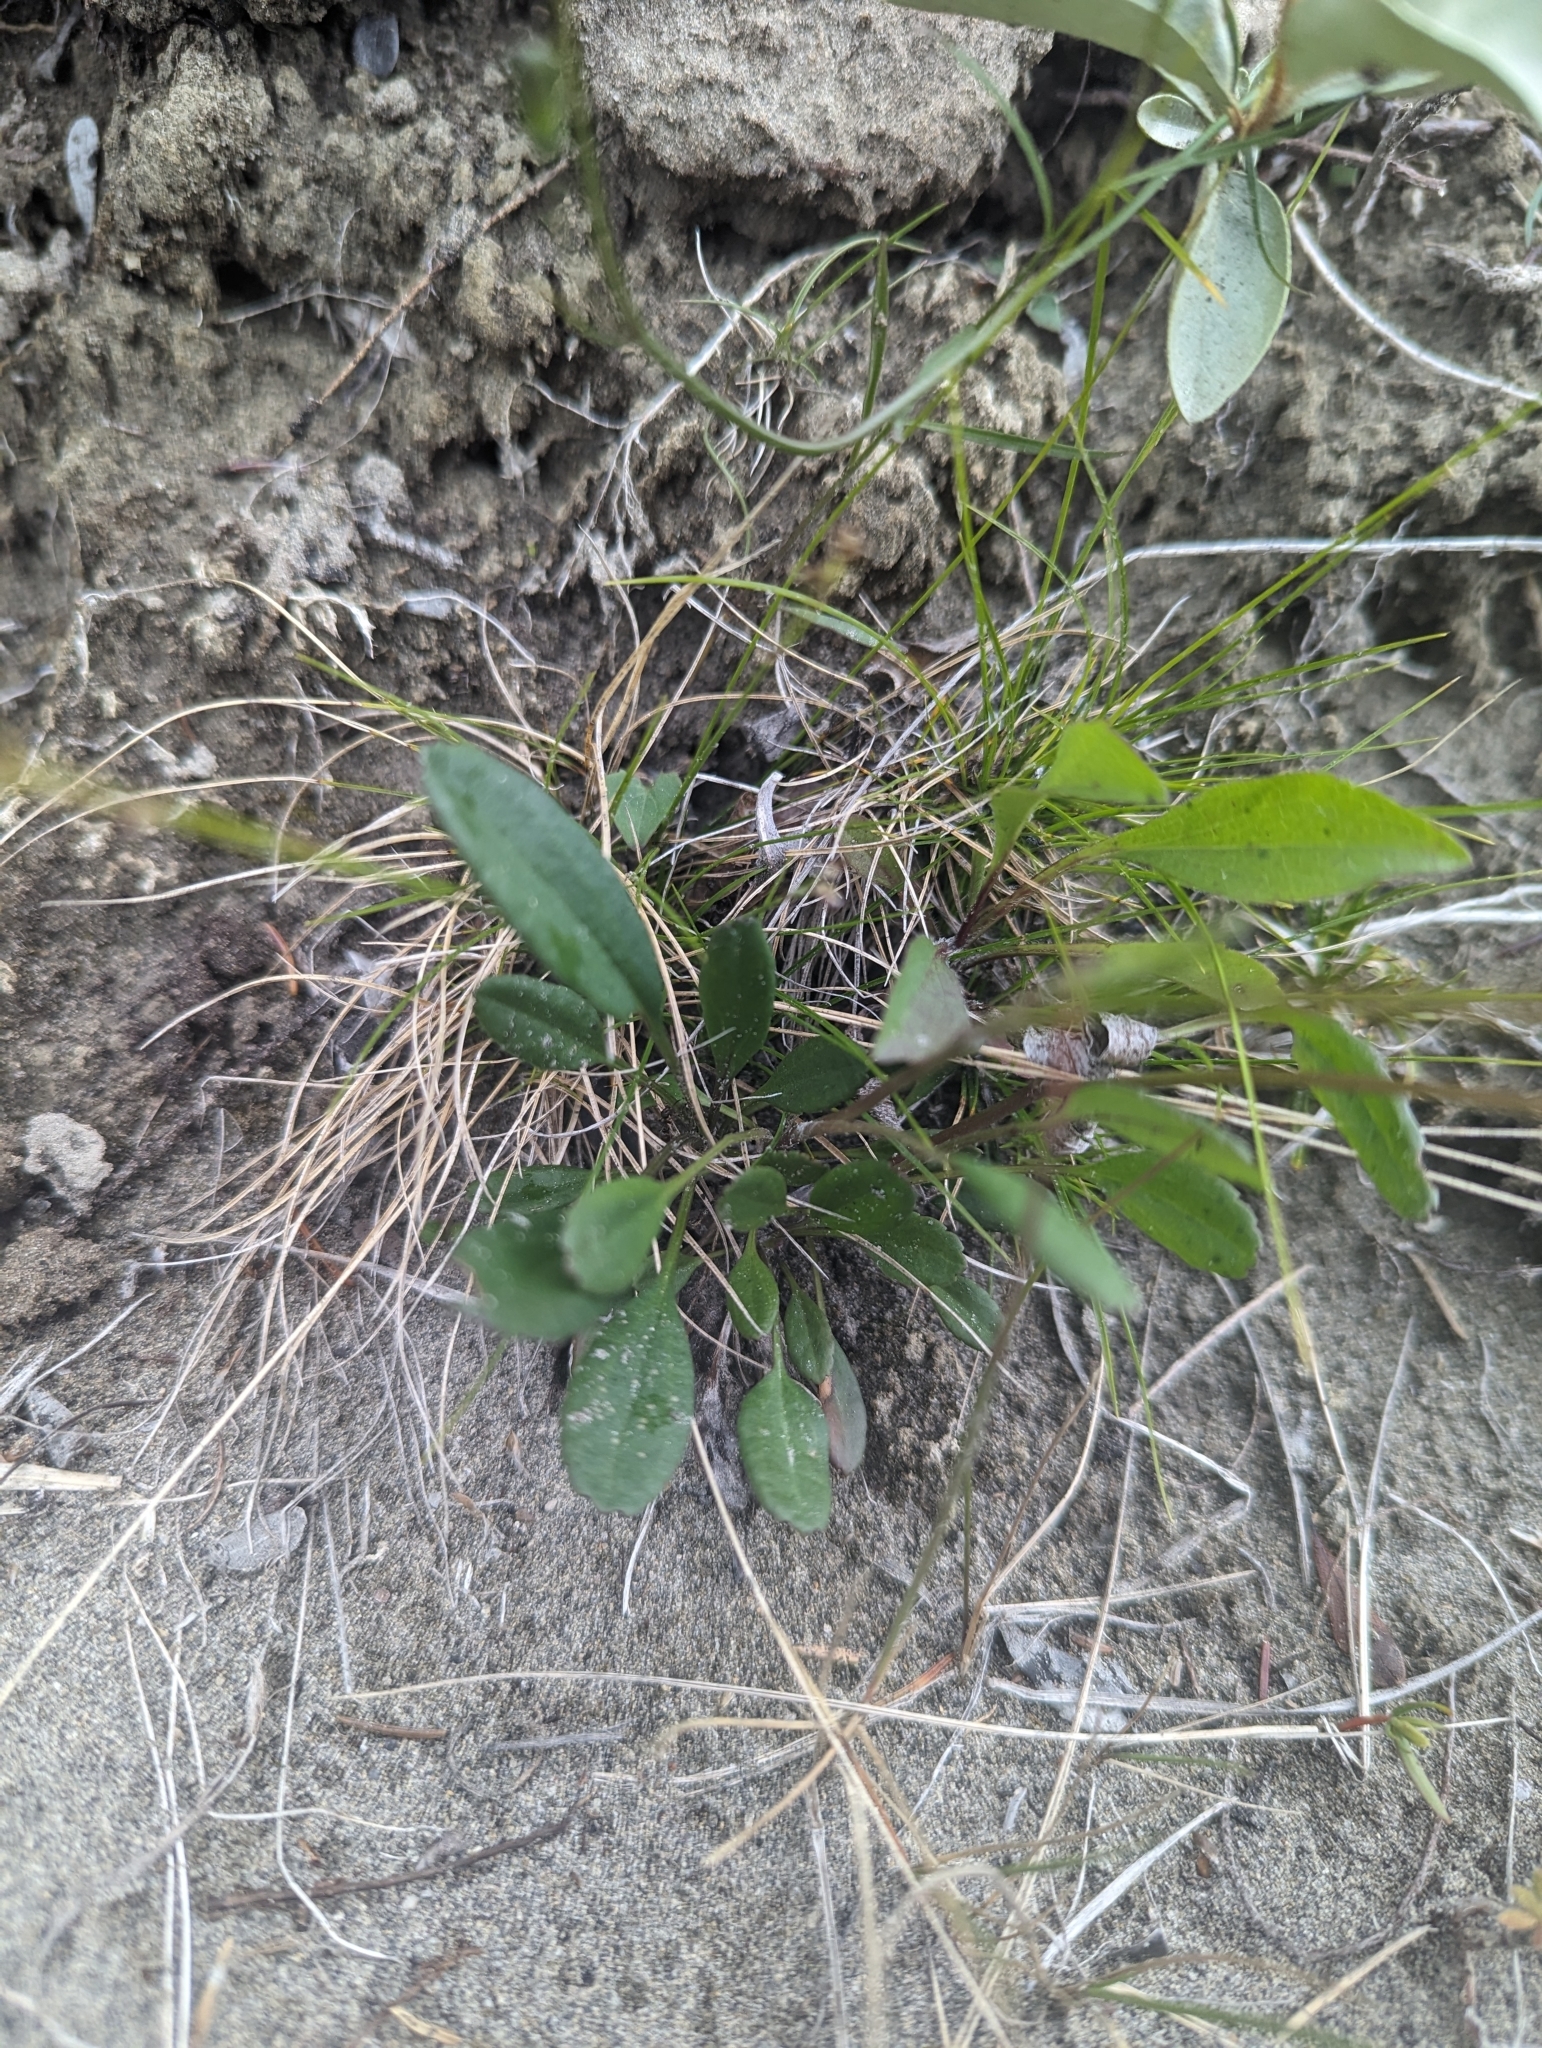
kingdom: Plantae
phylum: Tracheophyta
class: Magnoliopsida
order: Asterales
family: Asteraceae
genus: Packera
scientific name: Packera cana
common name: Woolly groundsel
